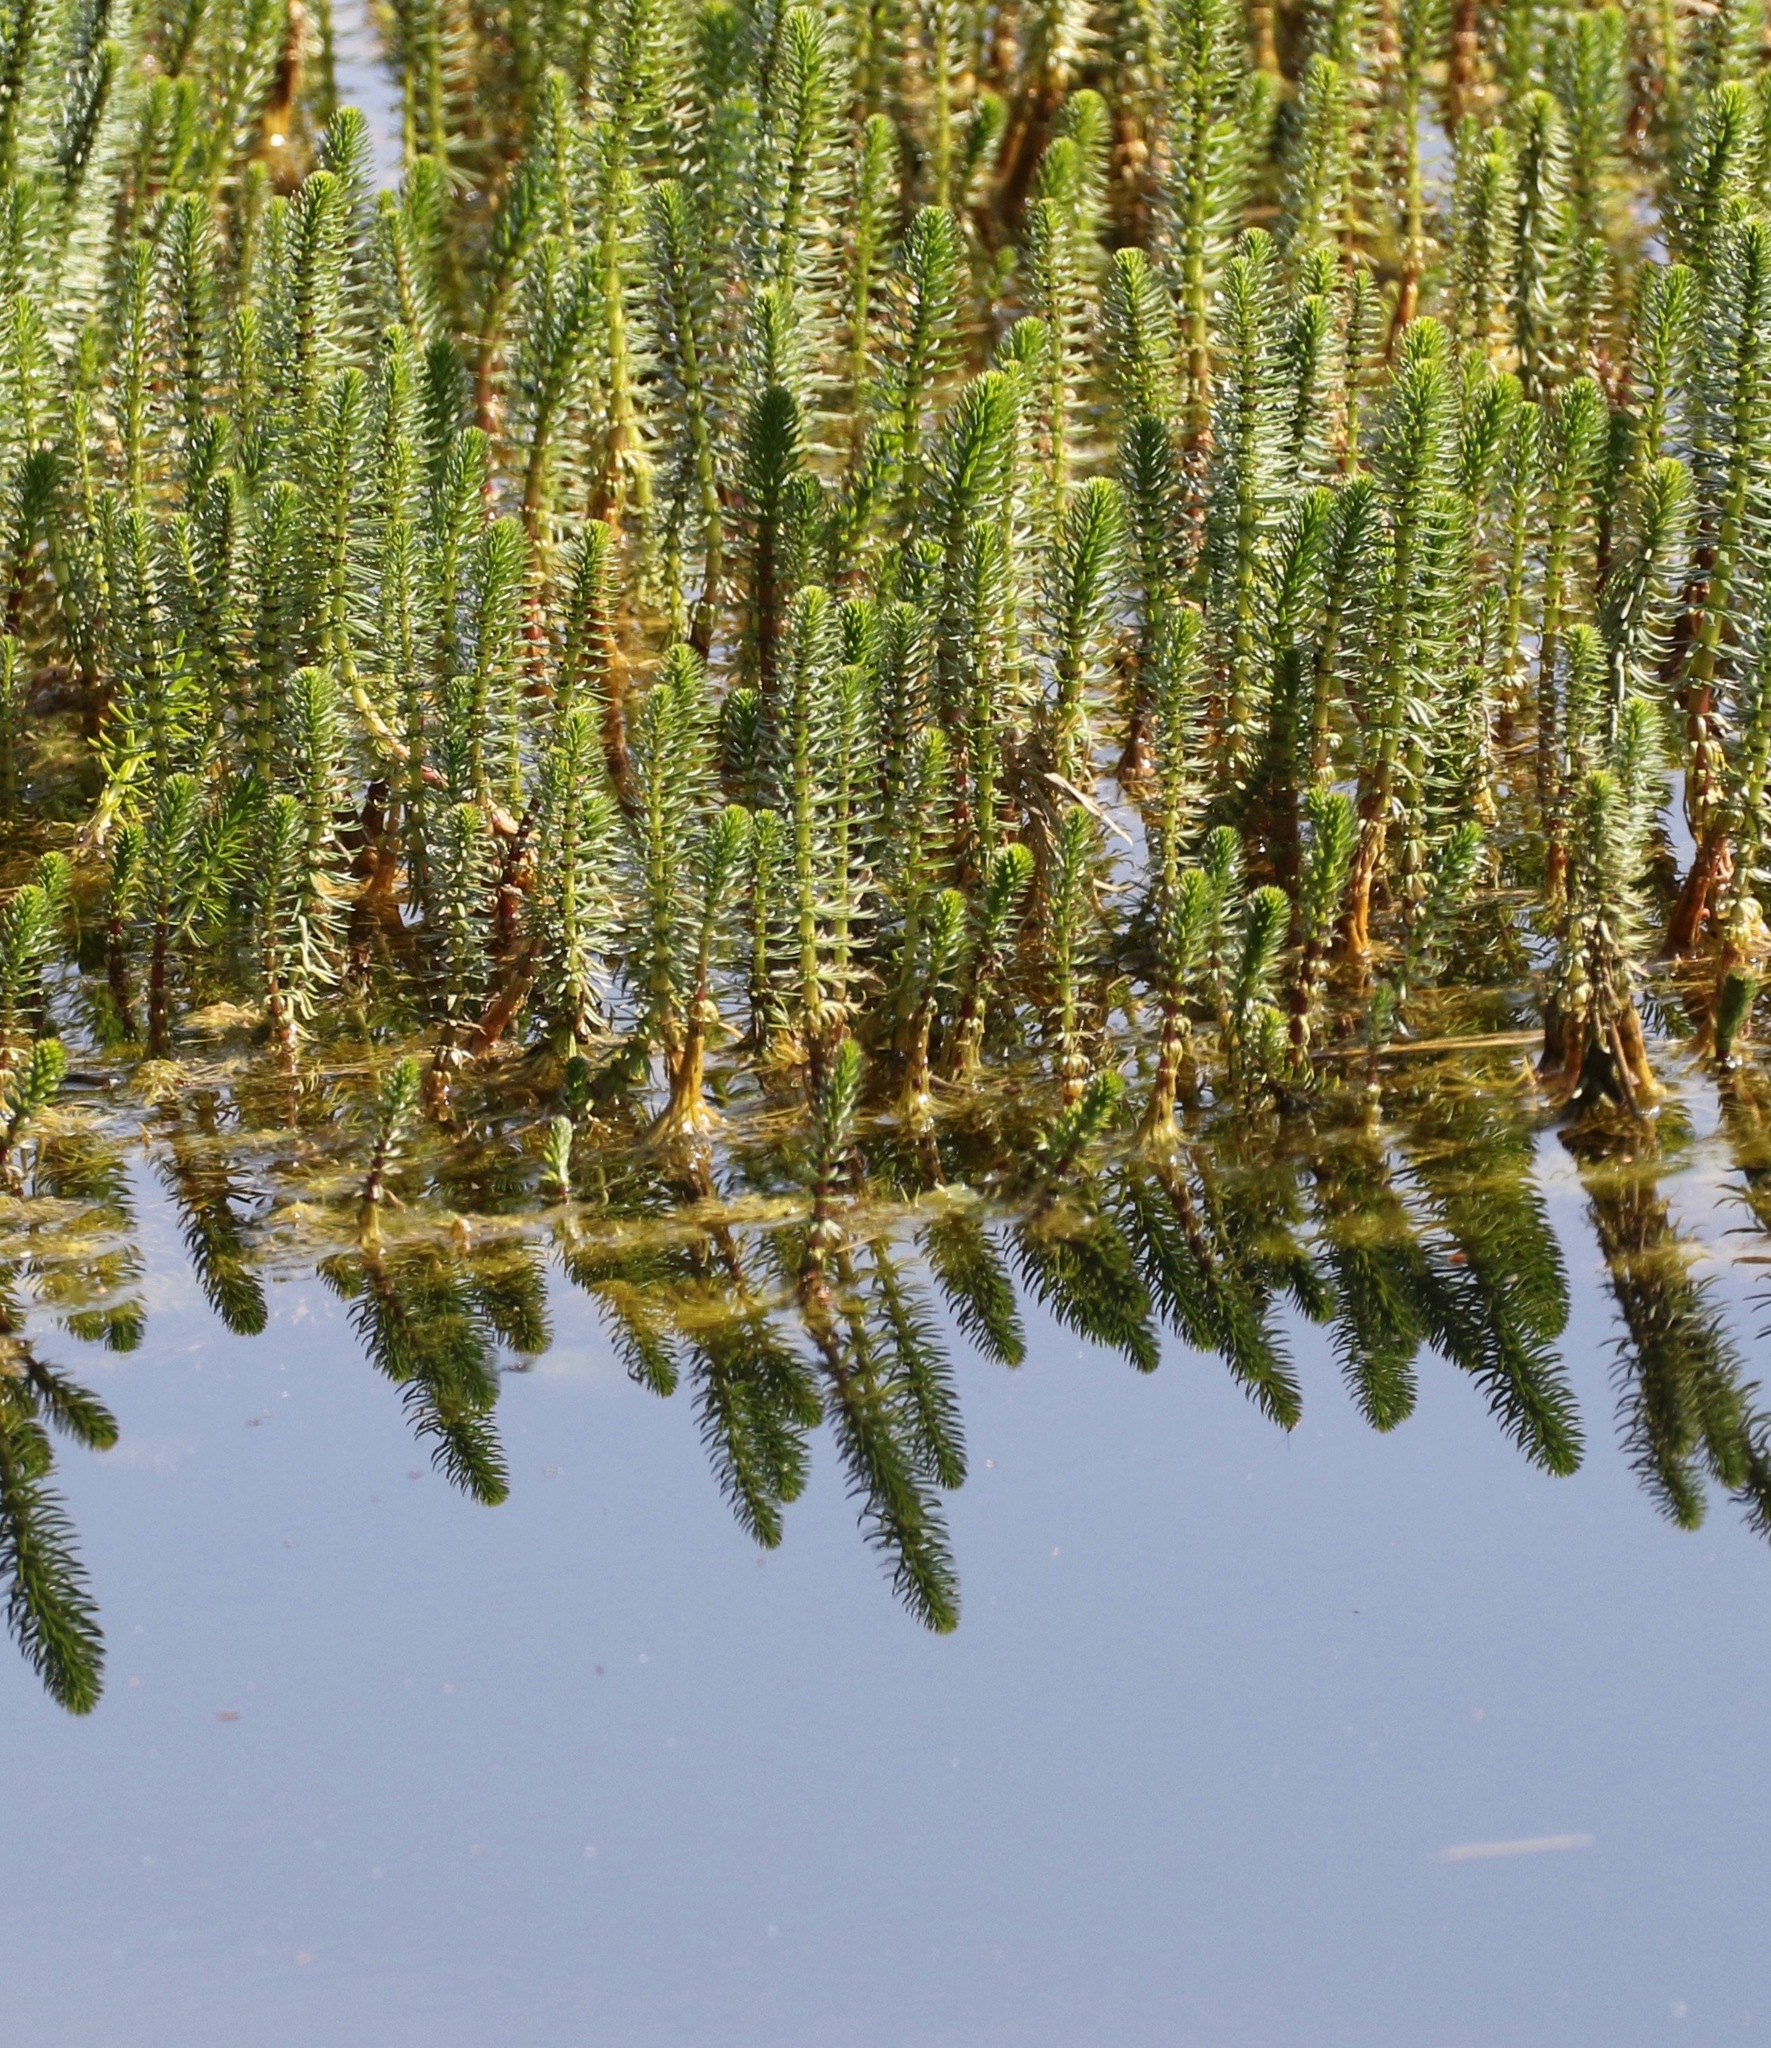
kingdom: Plantae
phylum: Tracheophyta
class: Magnoliopsida
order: Lamiales
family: Plantaginaceae
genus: Hippuris
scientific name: Hippuris vulgaris
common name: Mare's-tail
